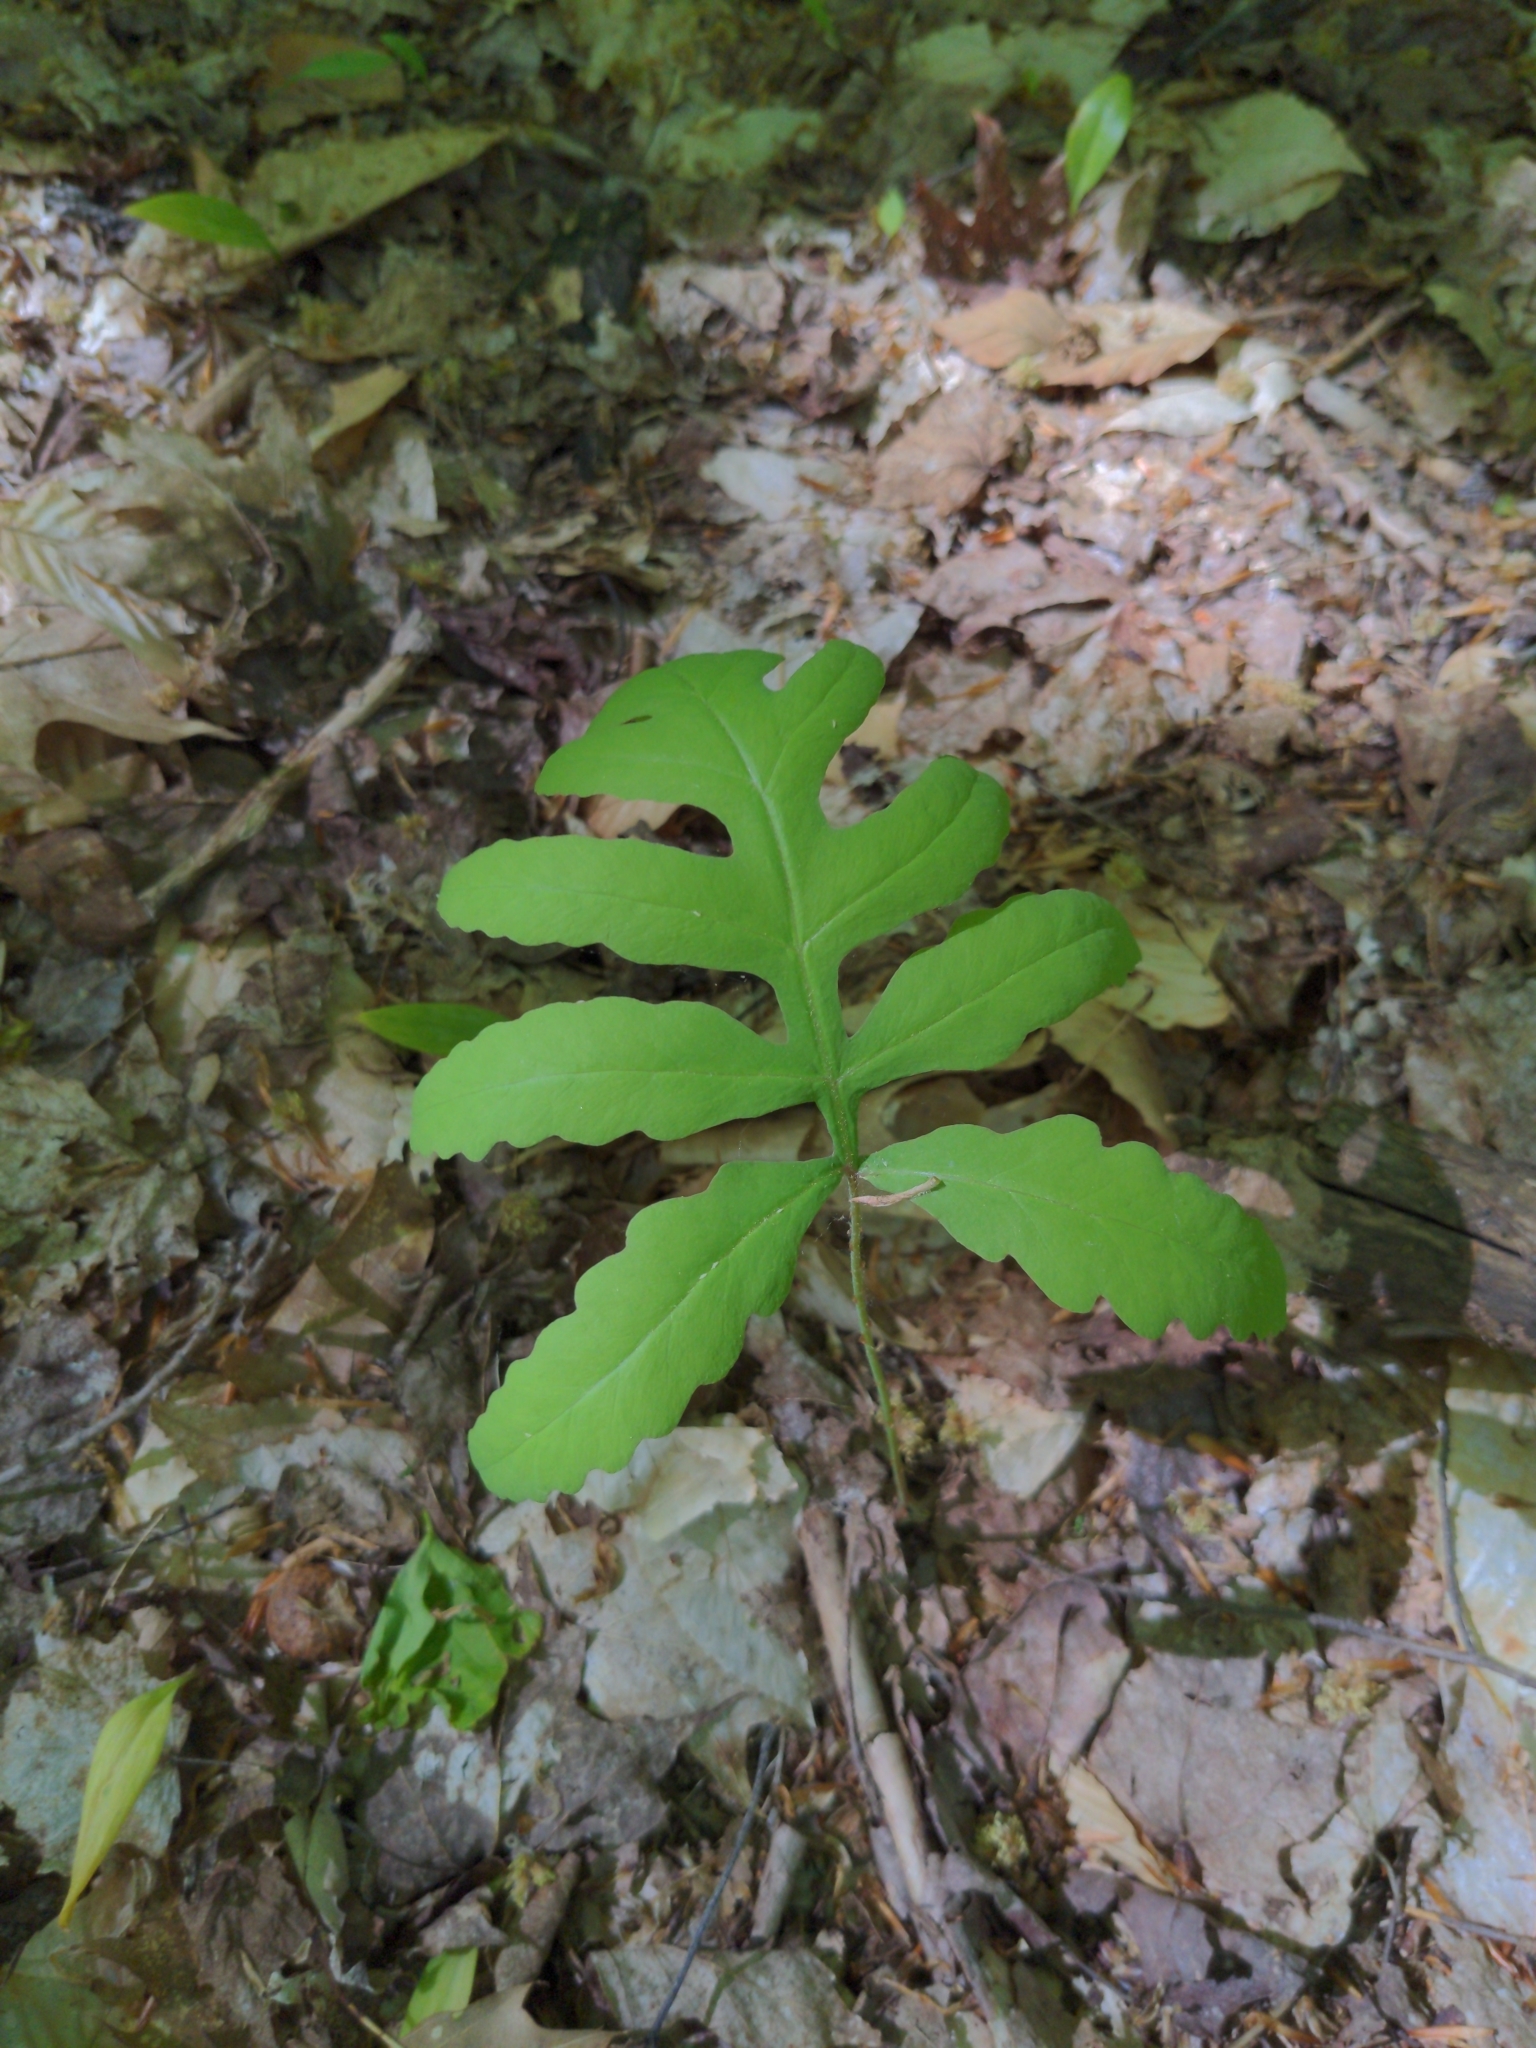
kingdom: Plantae
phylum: Tracheophyta
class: Polypodiopsida
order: Polypodiales
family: Onocleaceae
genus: Onoclea
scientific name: Onoclea sensibilis
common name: Sensitive fern
